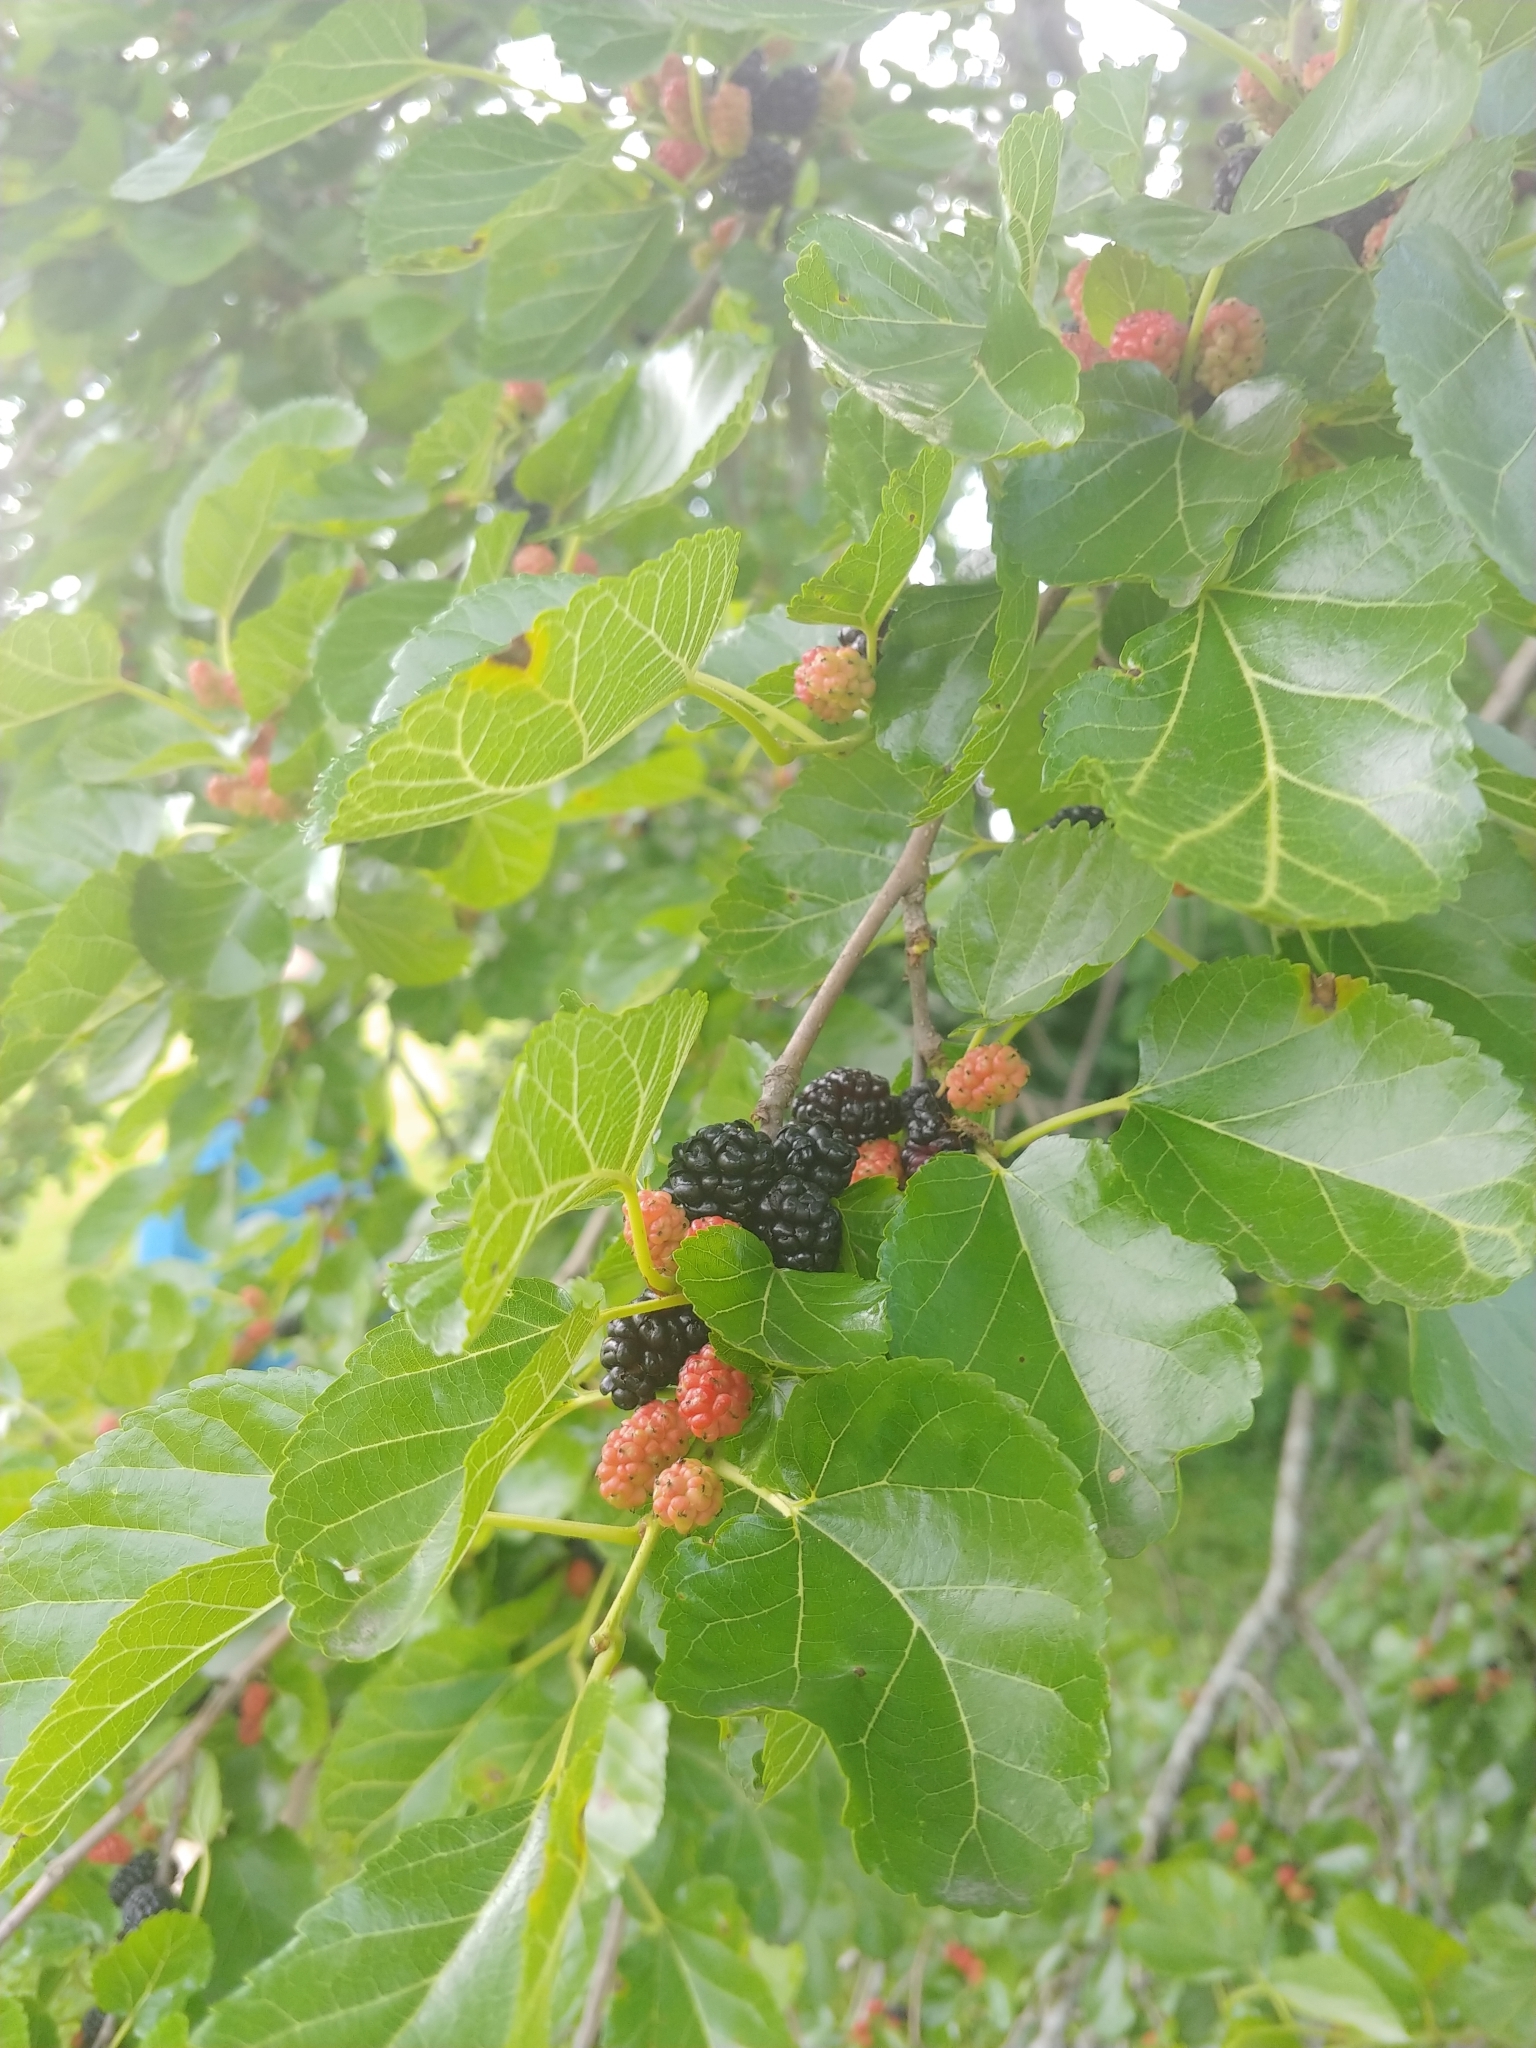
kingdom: Plantae
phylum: Tracheophyta
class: Magnoliopsida
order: Rosales
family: Moraceae
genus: Morus
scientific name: Morus alba
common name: White mulberry
